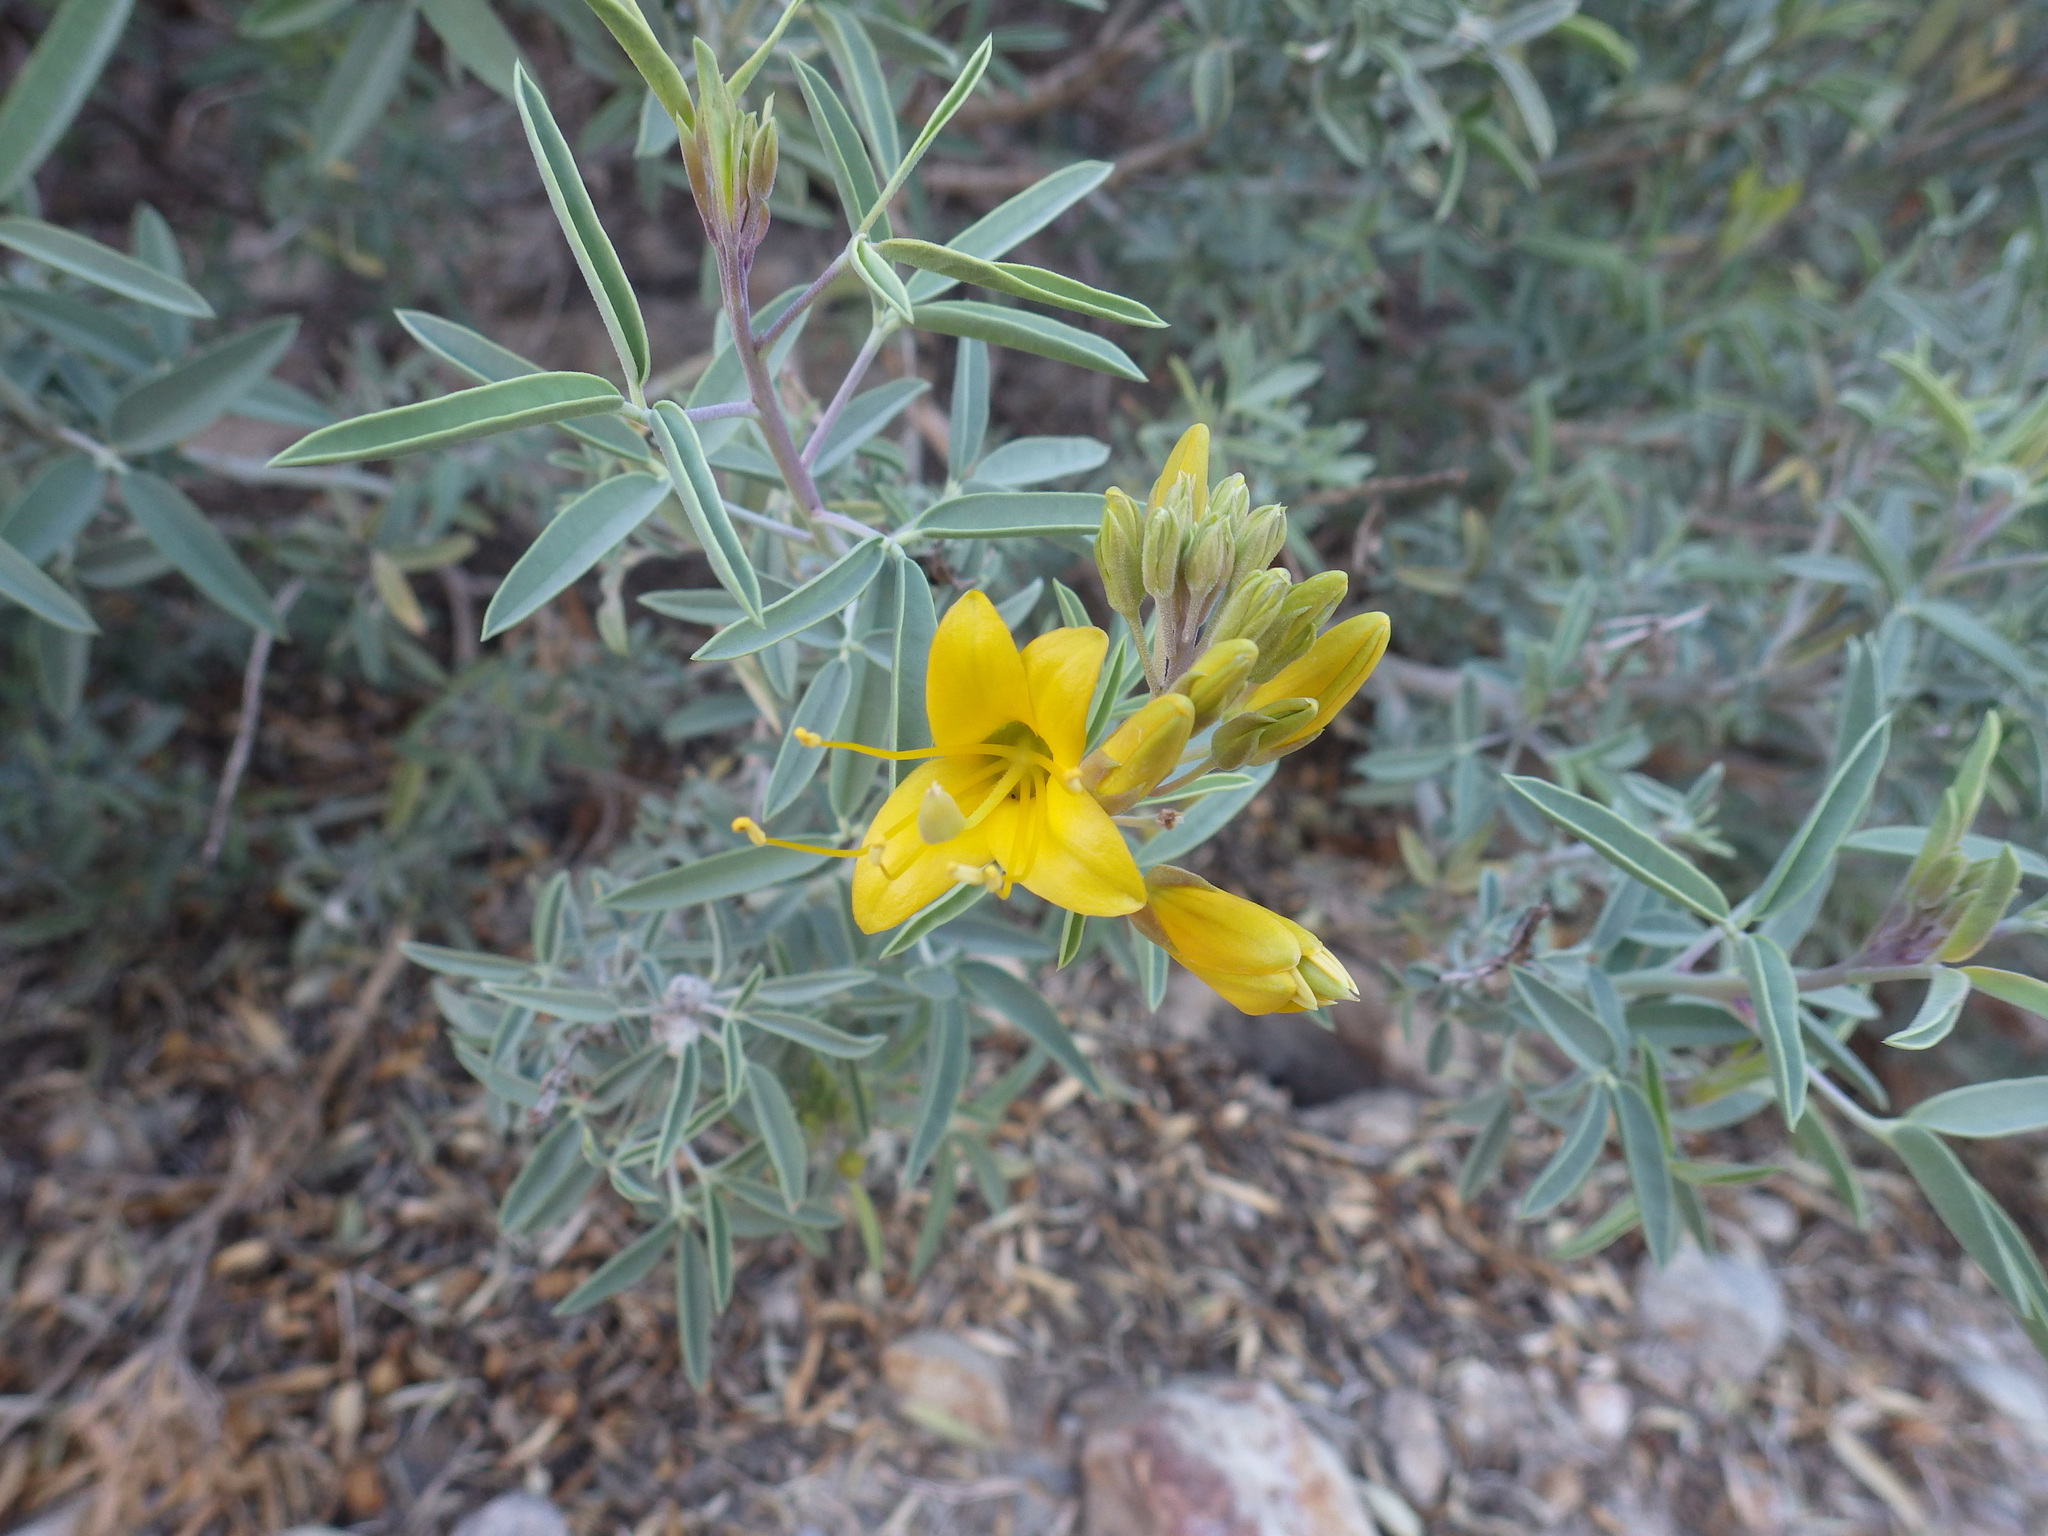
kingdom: Plantae
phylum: Tracheophyta
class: Magnoliopsida
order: Brassicales
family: Cleomaceae
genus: Cleomella
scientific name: Cleomella arborea
